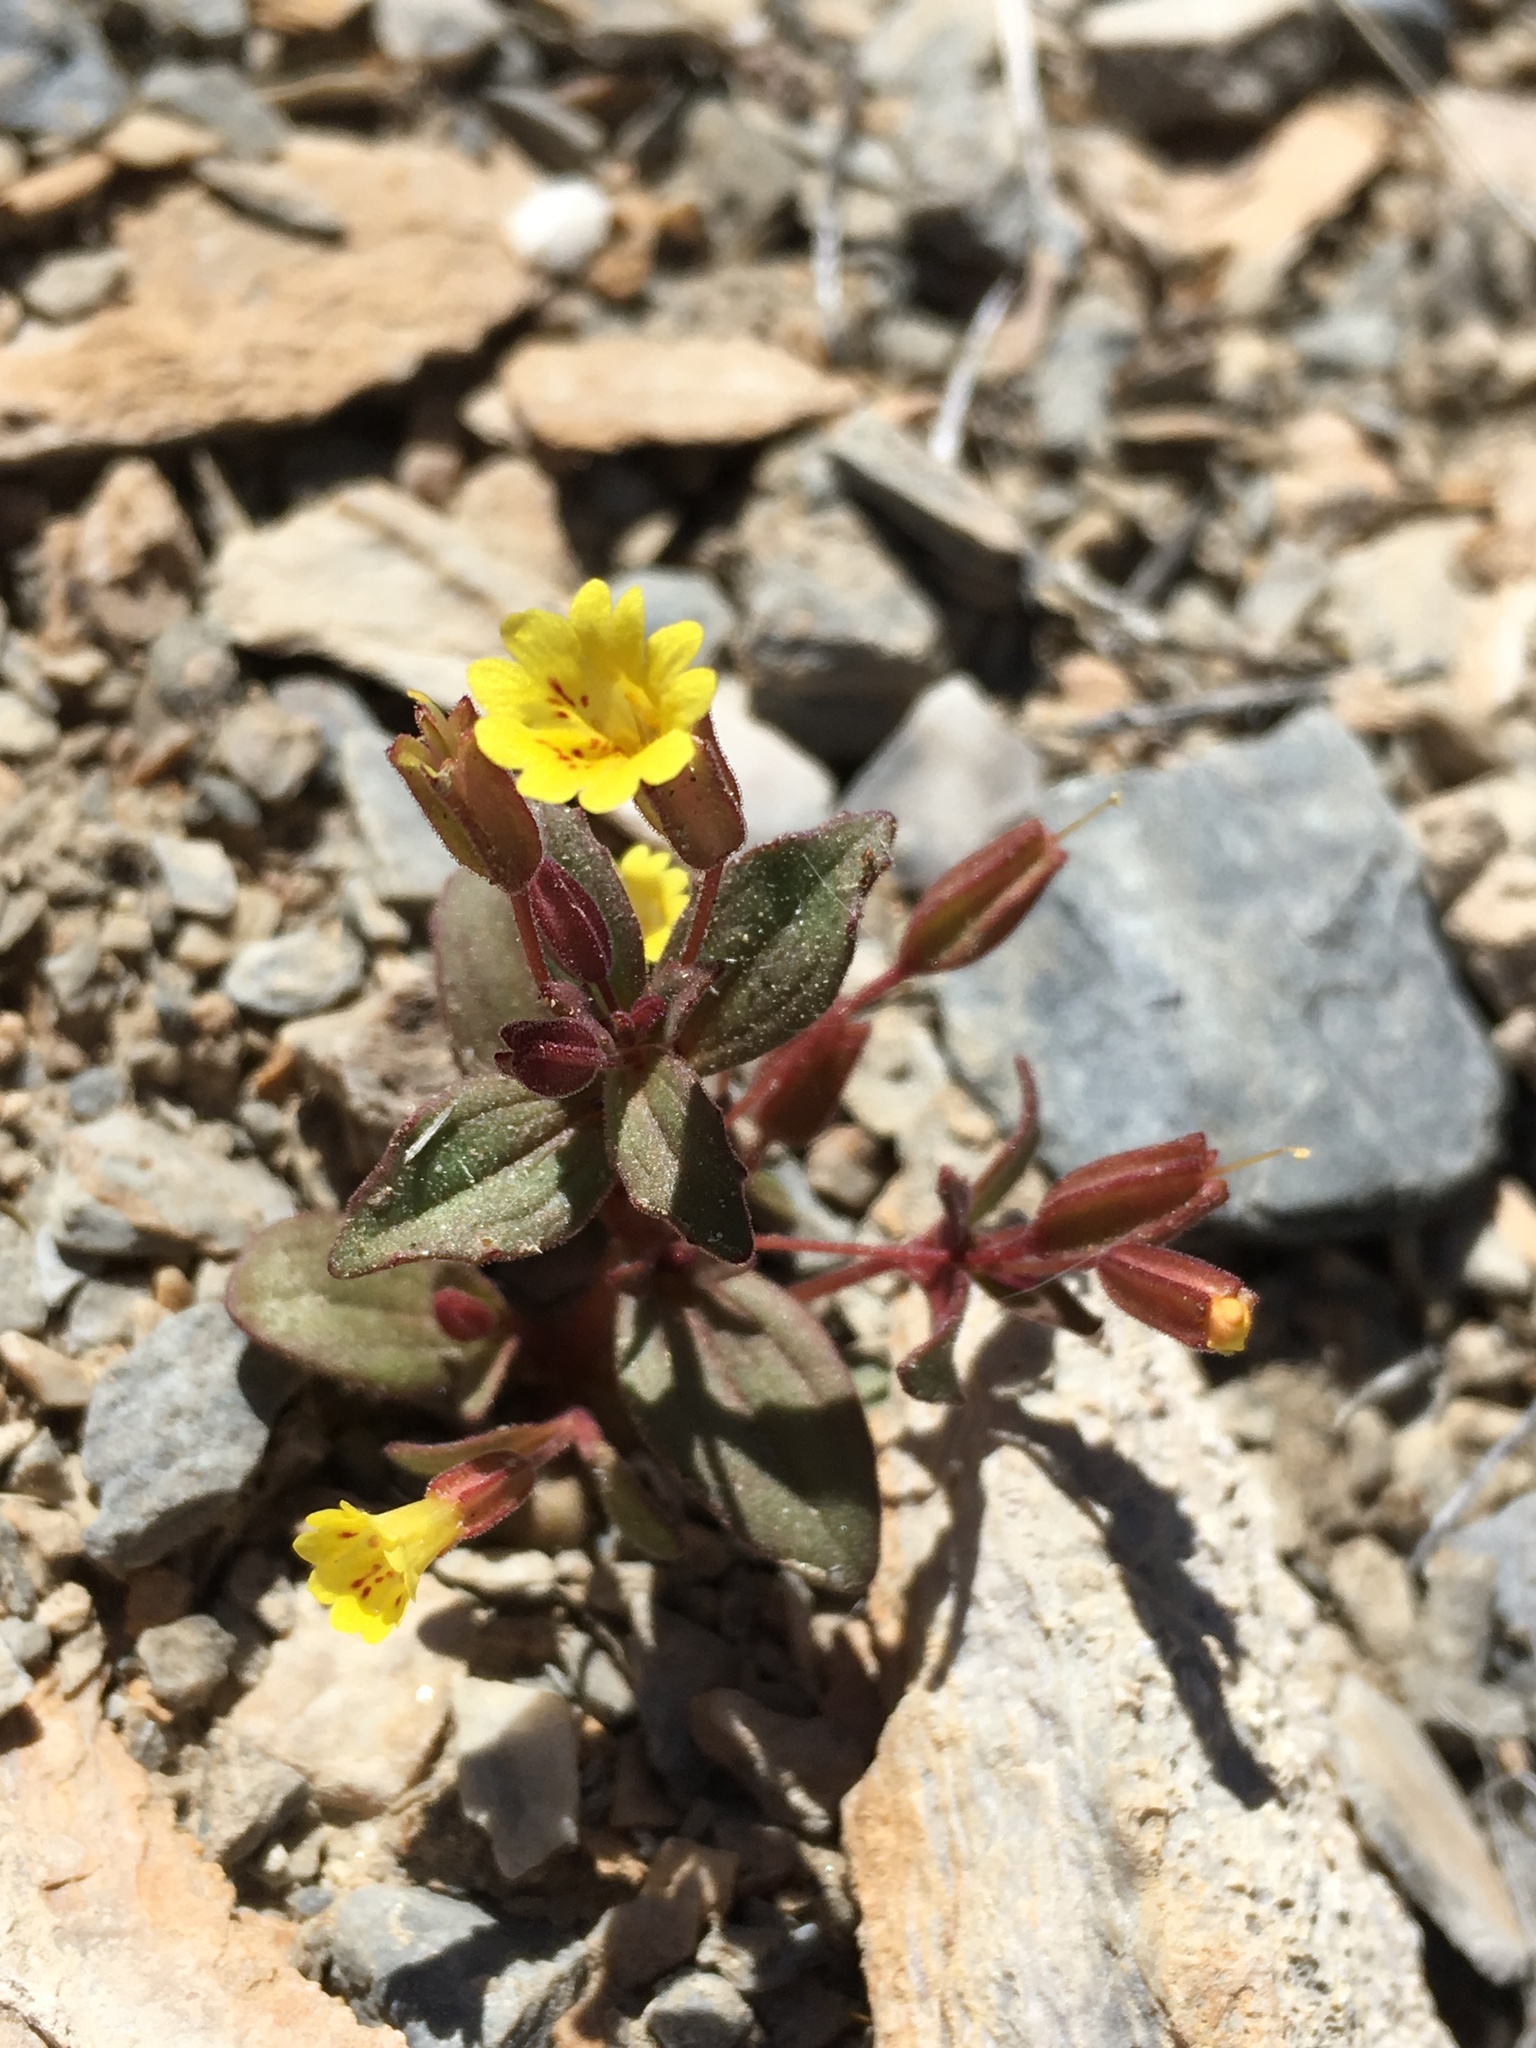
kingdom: Plantae
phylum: Tracheophyta
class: Magnoliopsida
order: Lamiales
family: Phrymaceae
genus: Erythranthe
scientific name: Erythranthe calcicola
